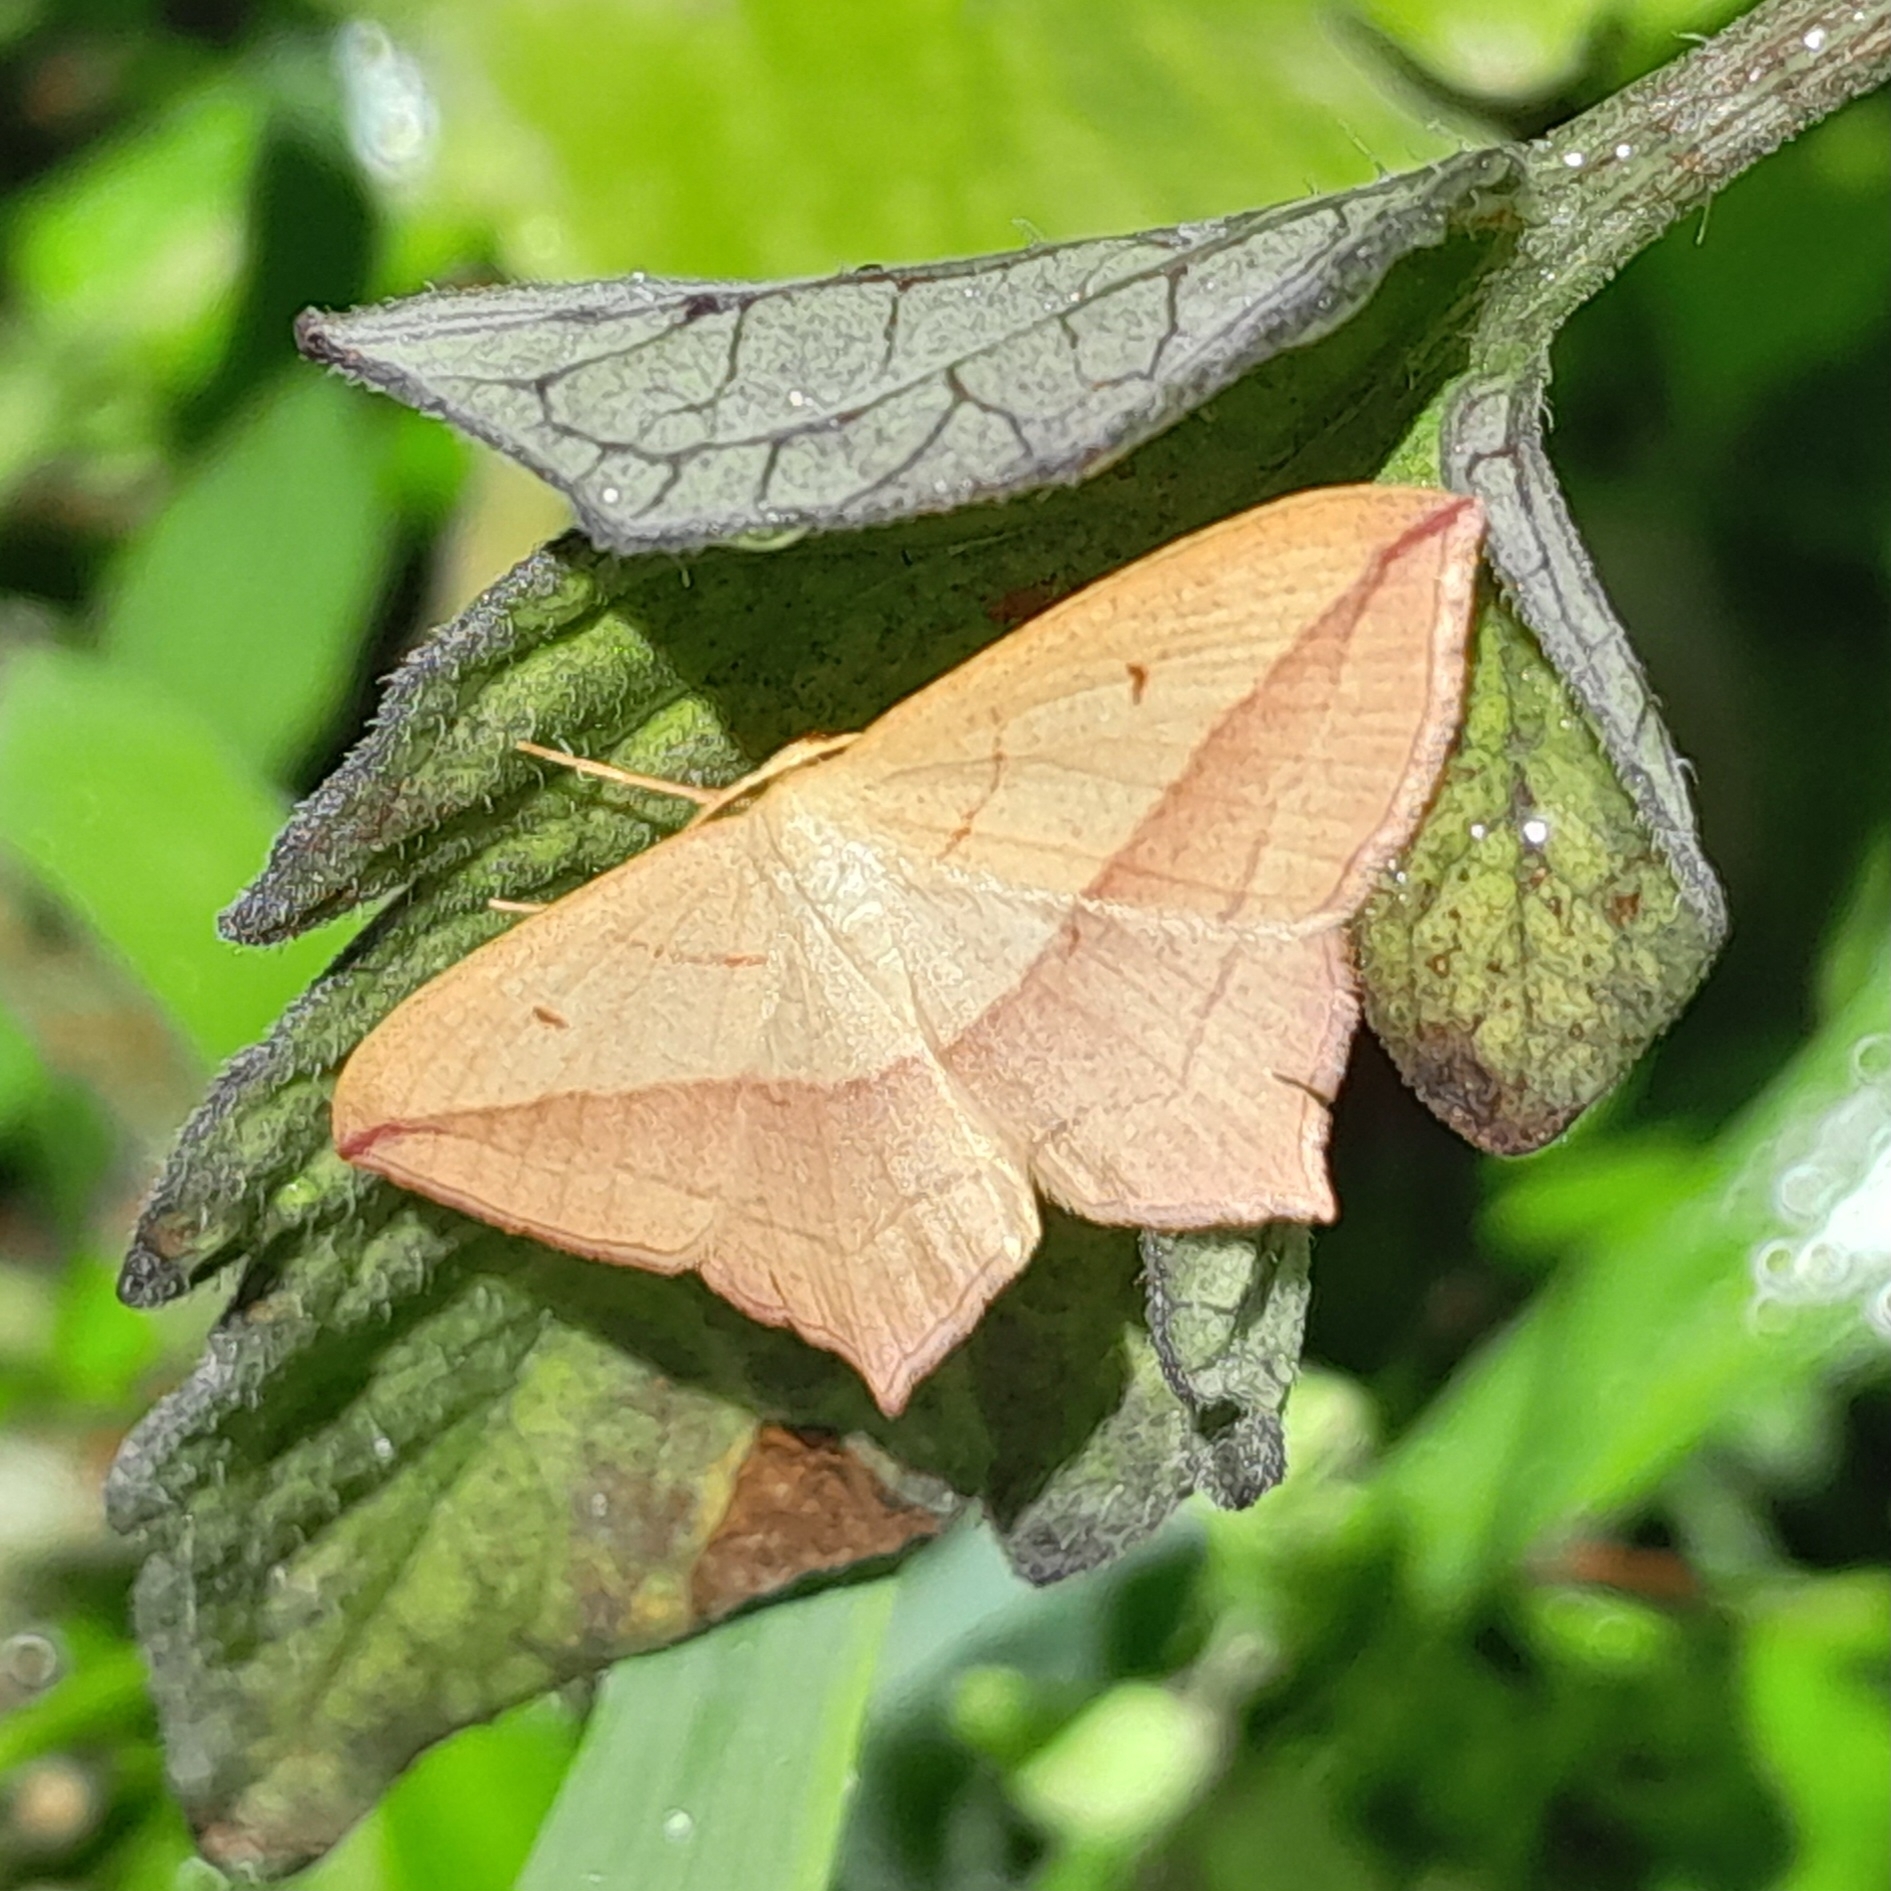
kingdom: Animalia
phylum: Arthropoda
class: Insecta
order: Lepidoptera
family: Geometridae
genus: Timandra
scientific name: Timandra comae
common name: Blood-vein
